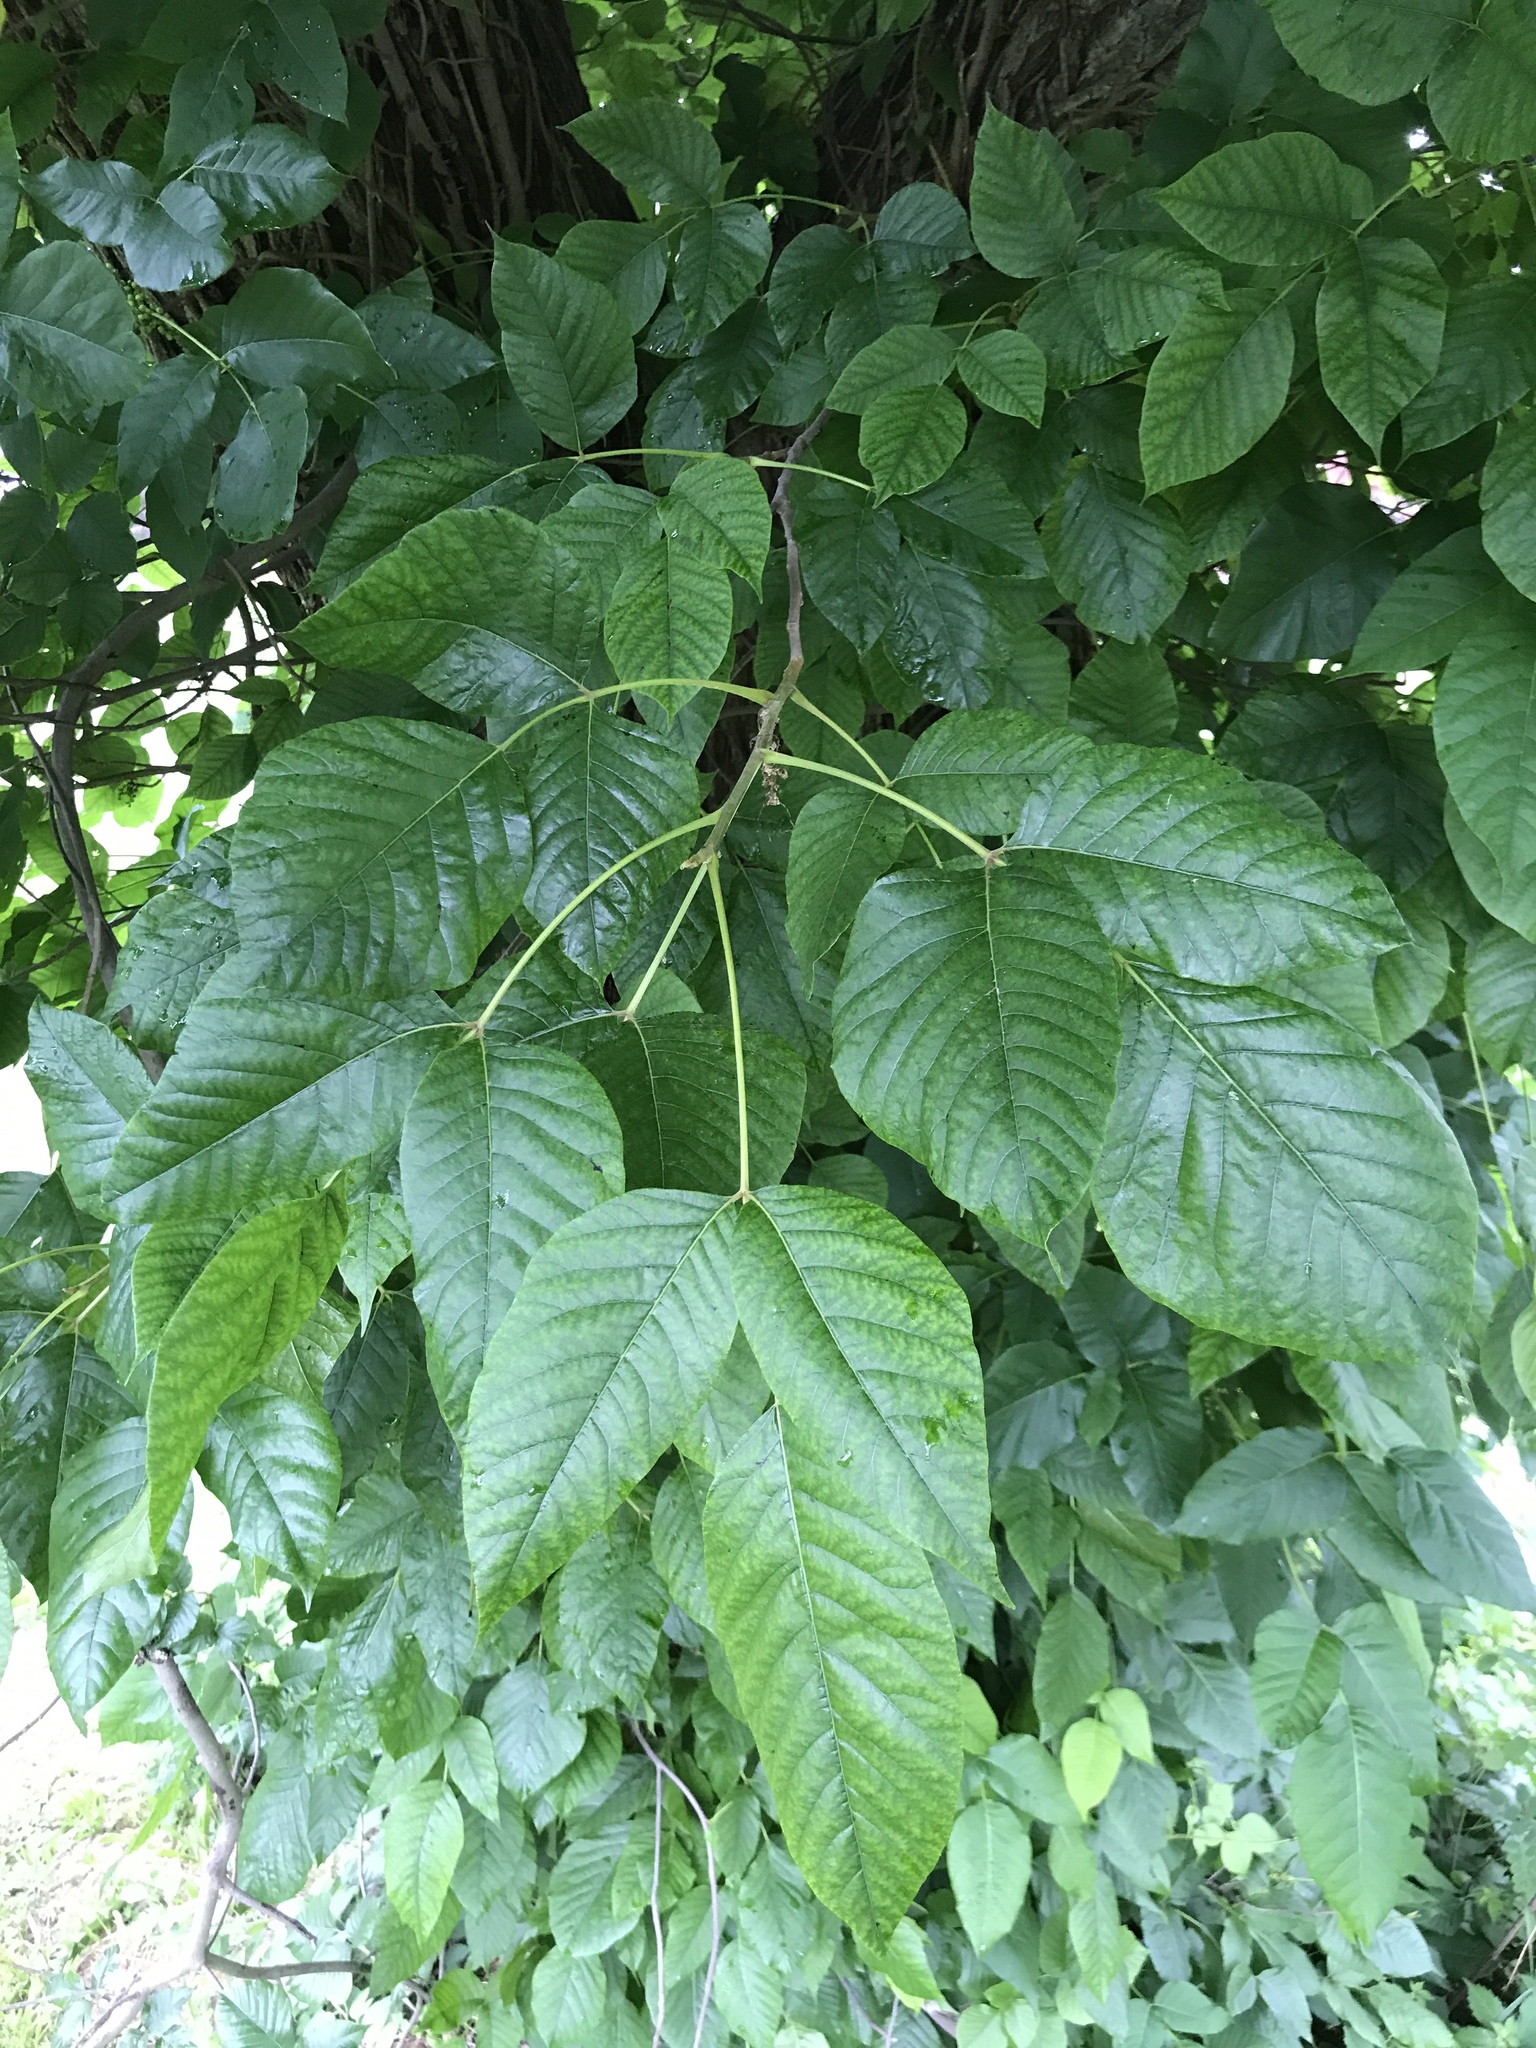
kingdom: Plantae
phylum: Tracheophyta
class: Magnoliopsida
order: Sapindales
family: Anacardiaceae
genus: Toxicodendron
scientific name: Toxicodendron radicans
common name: Poison ivy
